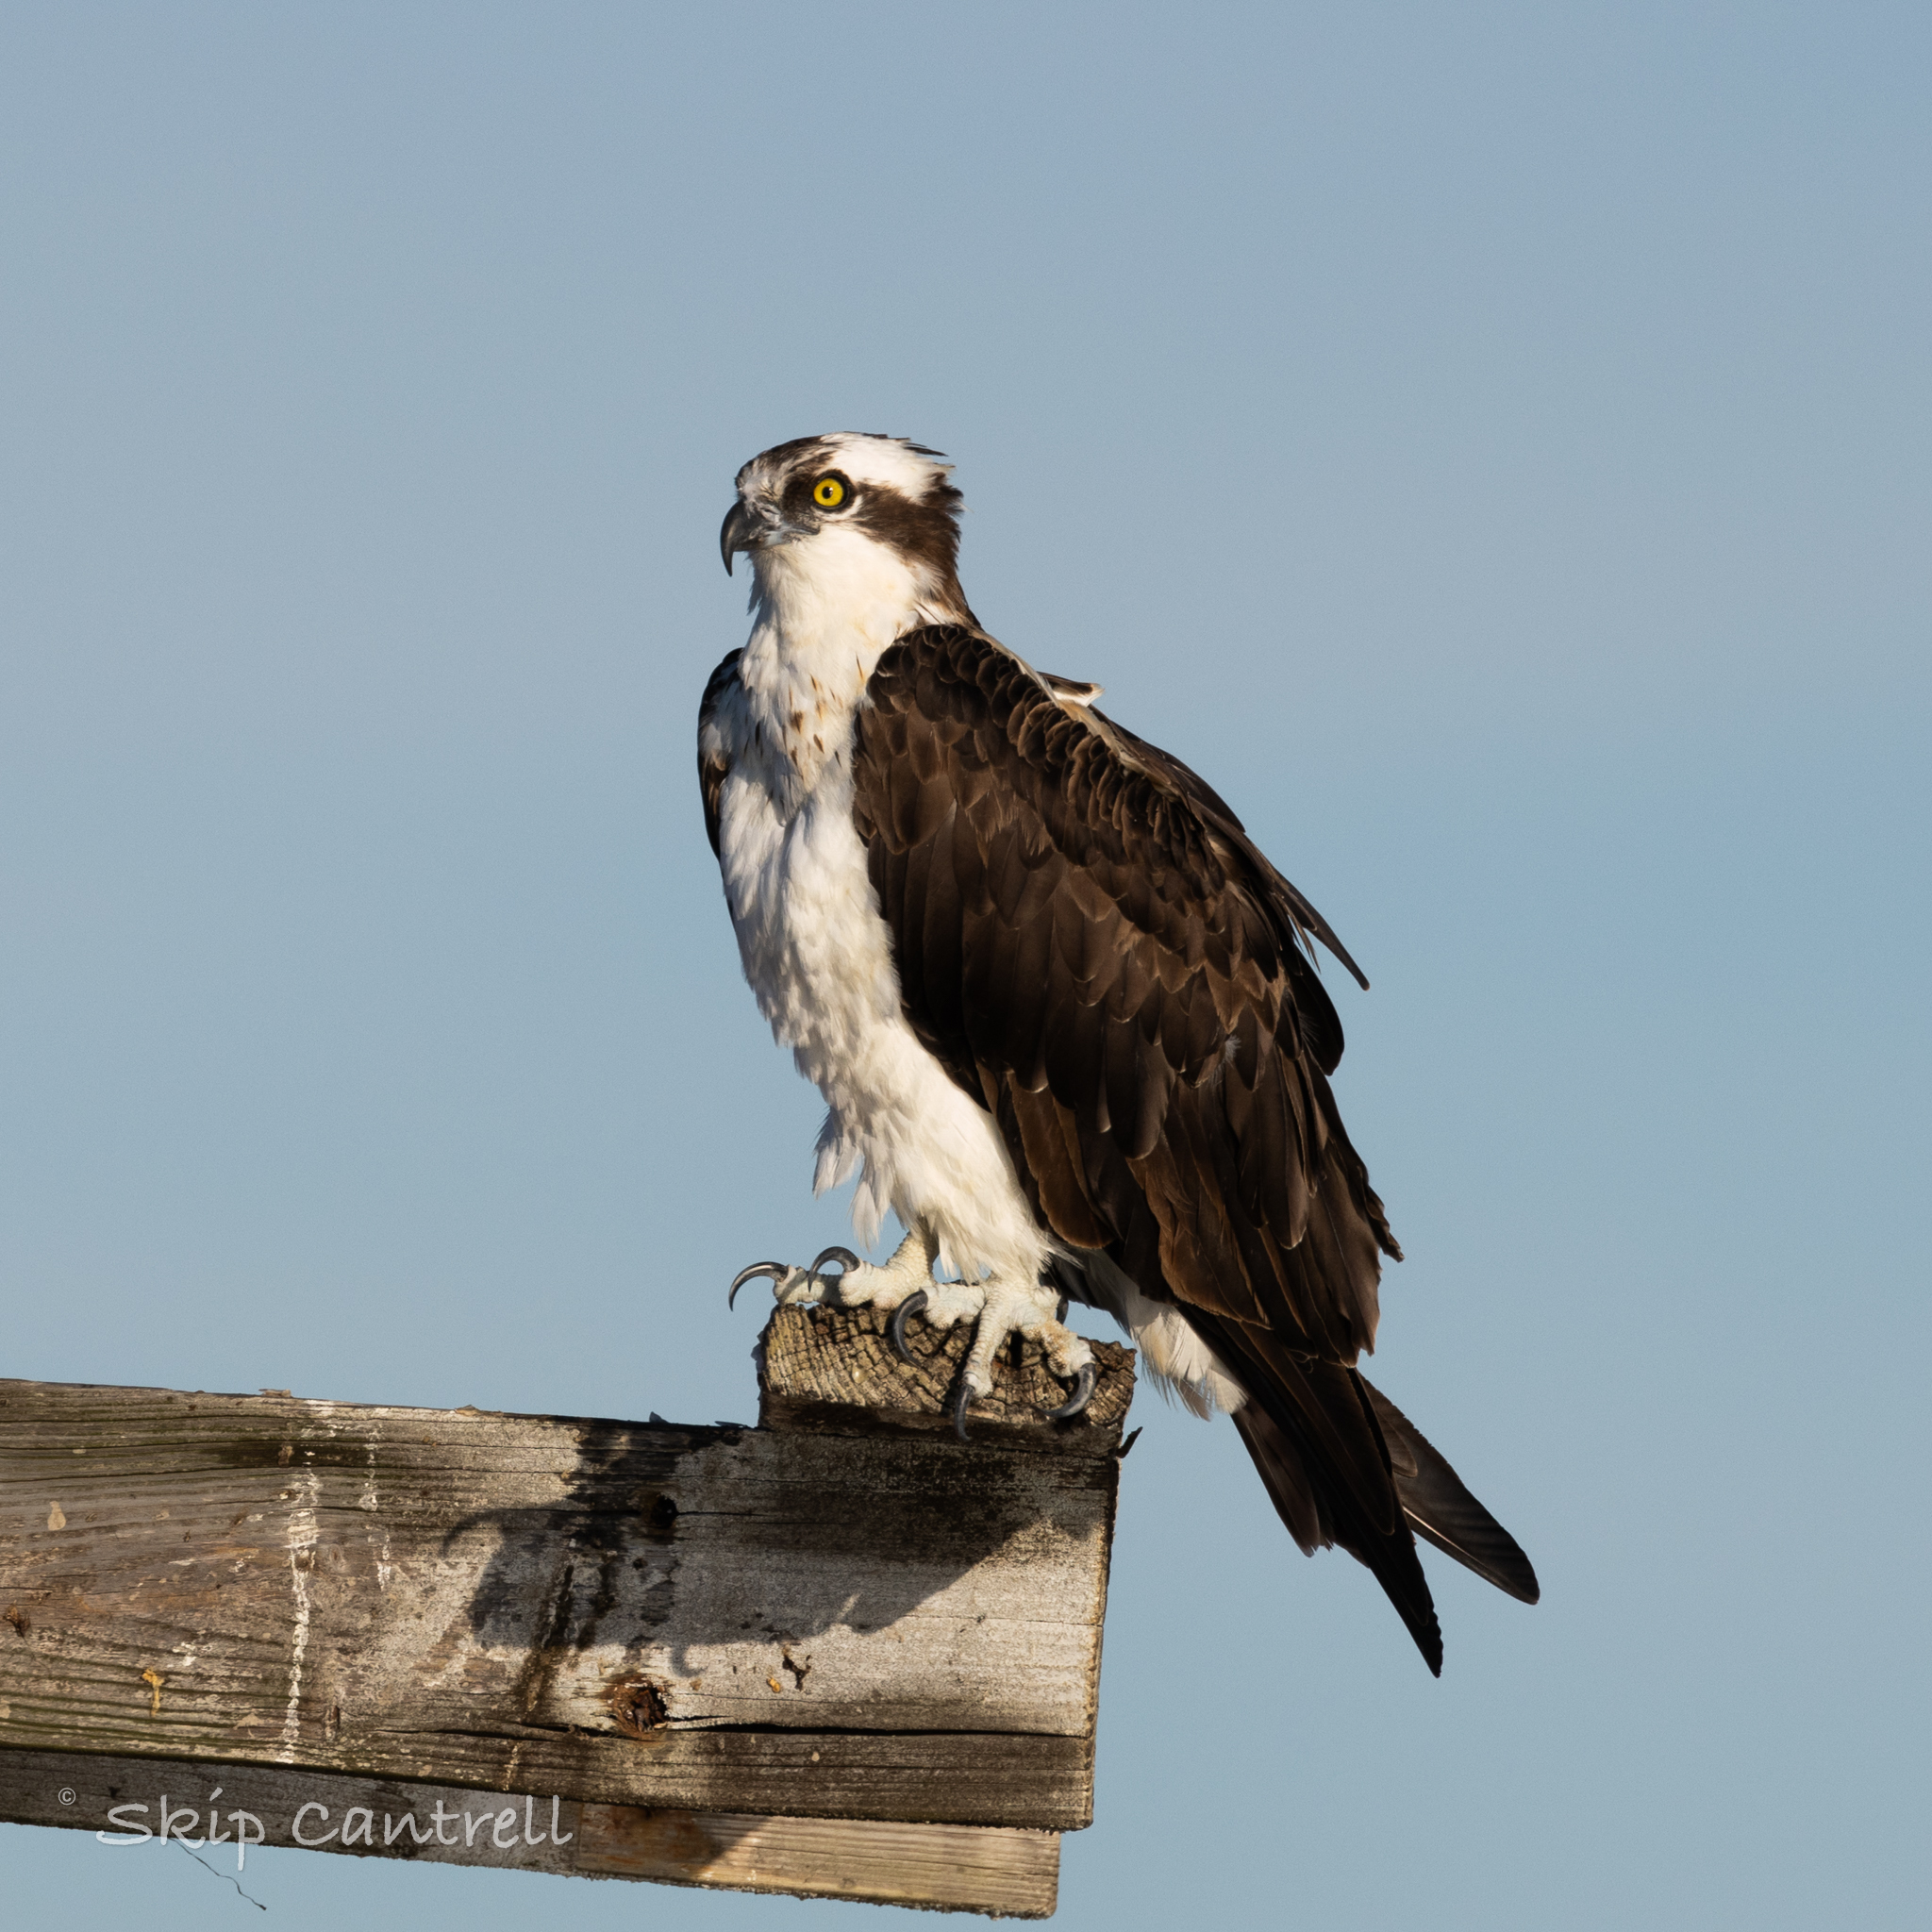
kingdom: Animalia
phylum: Chordata
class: Aves
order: Accipitriformes
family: Pandionidae
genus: Pandion
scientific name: Pandion haliaetus
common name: Osprey
